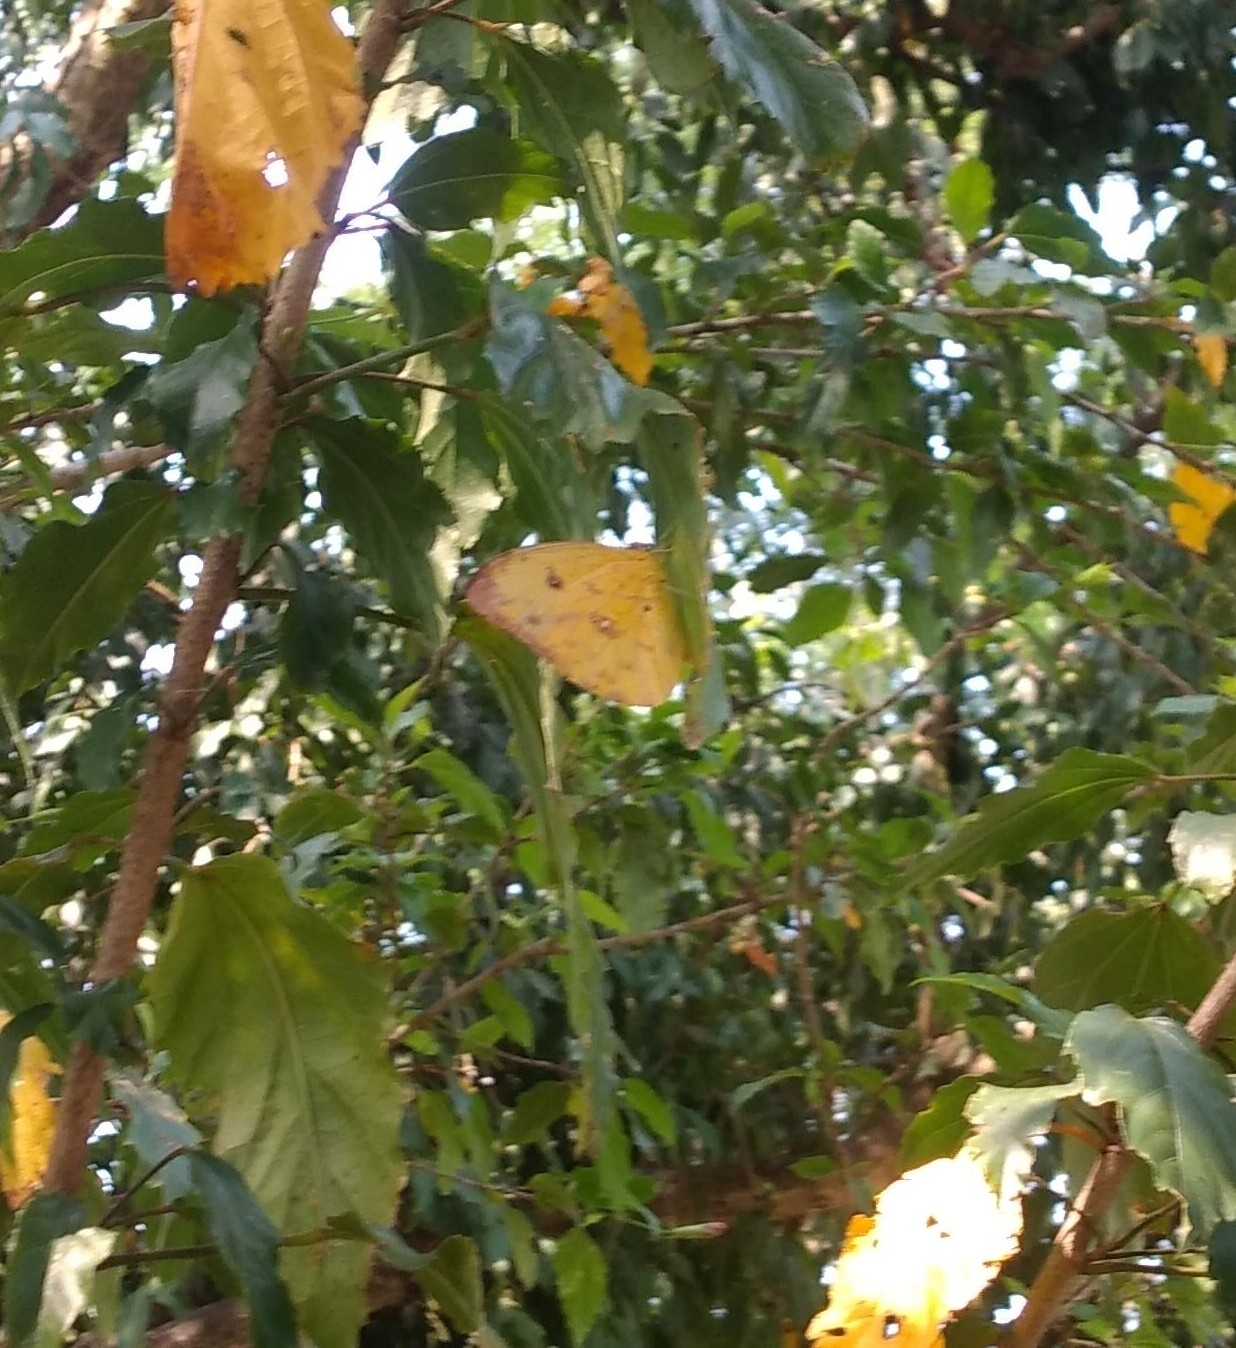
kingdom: Animalia
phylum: Arthropoda
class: Insecta
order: Lepidoptera
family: Pieridae
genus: Phoebis
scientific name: Phoebis argante
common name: Apricot sulphur
